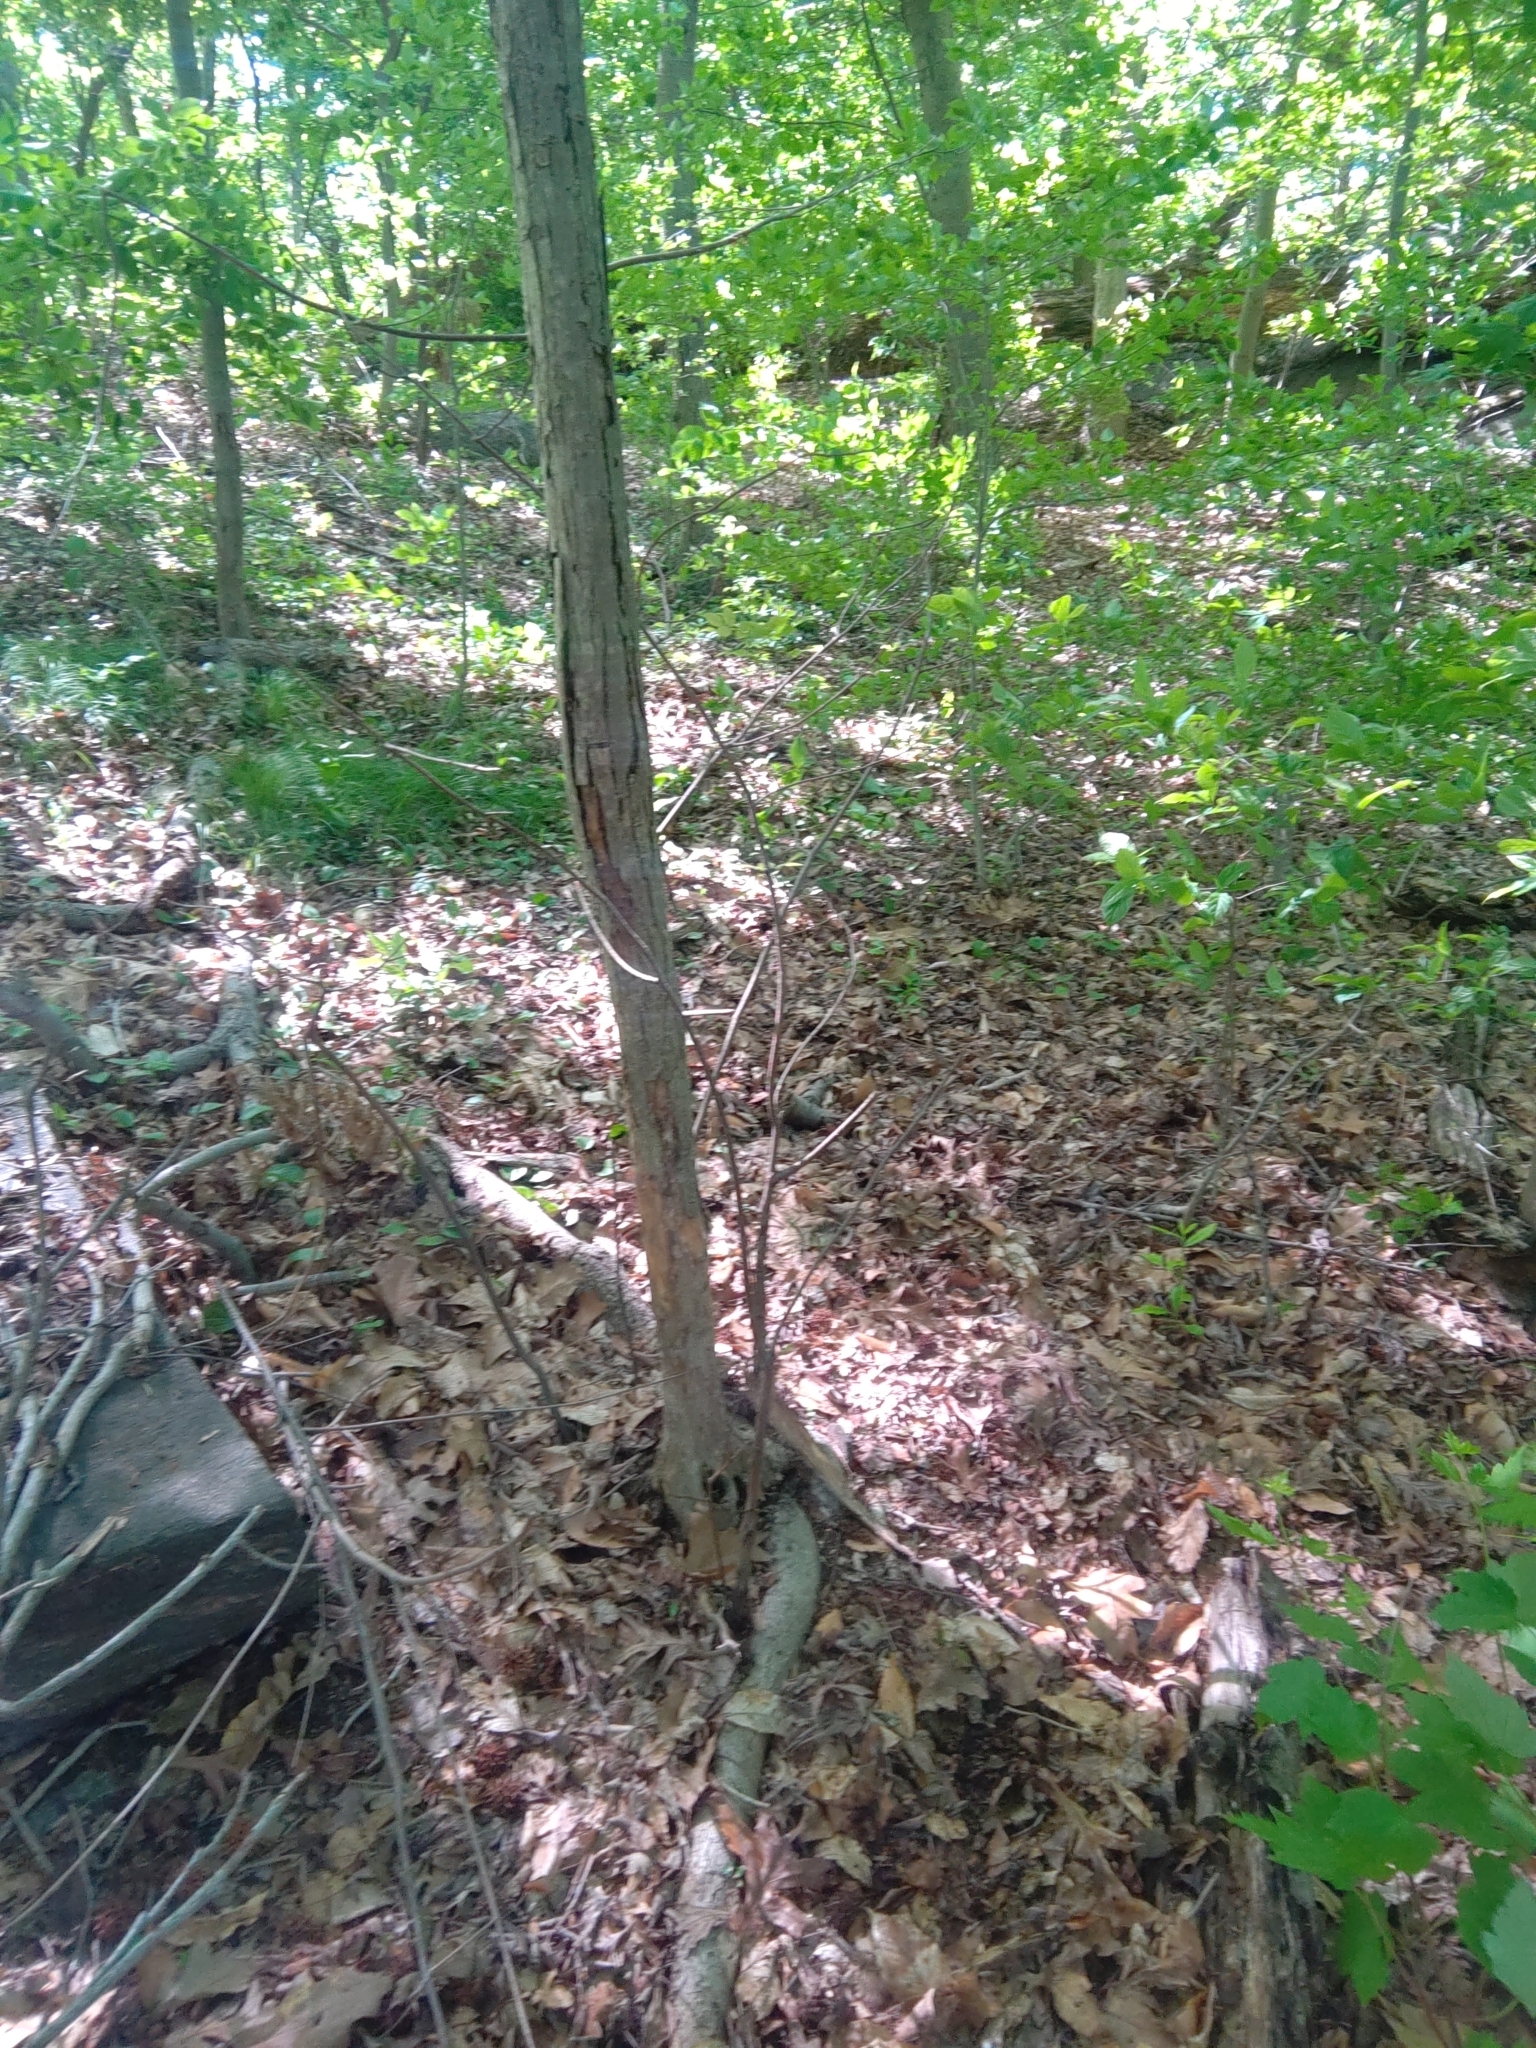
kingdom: Plantae
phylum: Tracheophyta
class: Magnoliopsida
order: Fagales
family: Fagaceae
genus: Castanea
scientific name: Castanea dentata
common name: American chestnut
